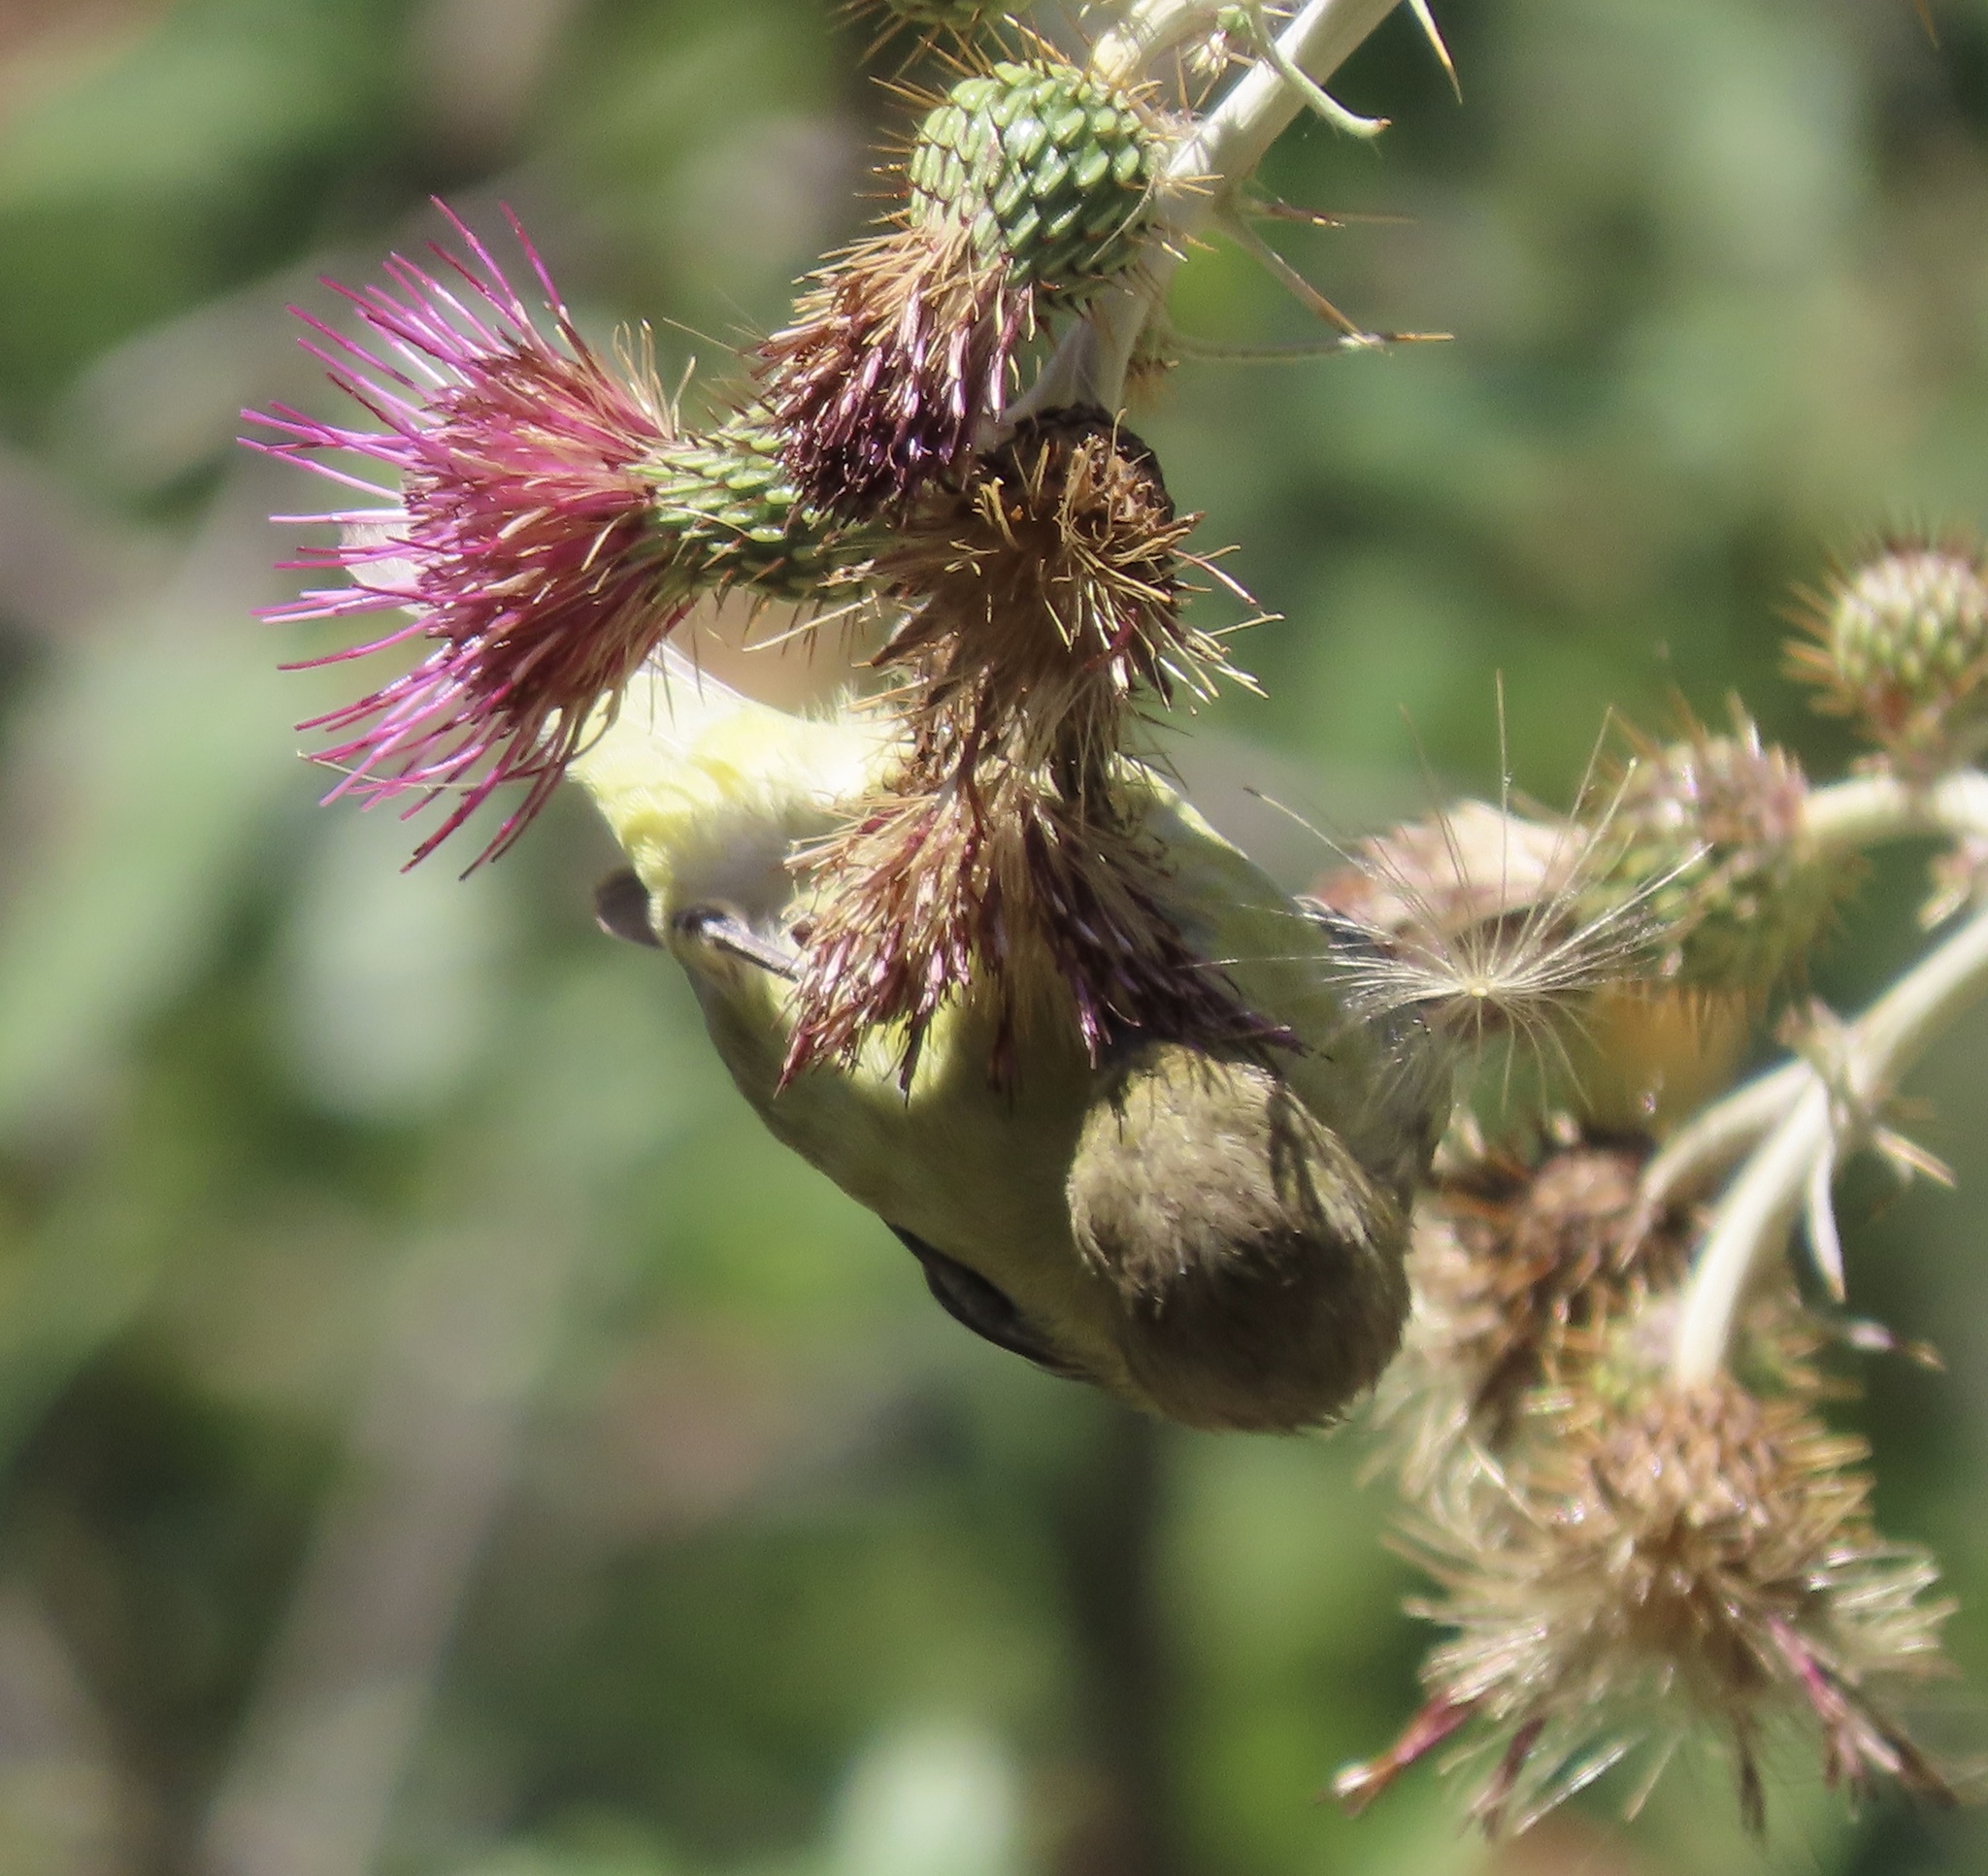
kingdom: Animalia
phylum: Chordata
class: Aves
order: Passeriformes
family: Fringillidae
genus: Spinus
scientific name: Spinus psaltria
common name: Lesser goldfinch
